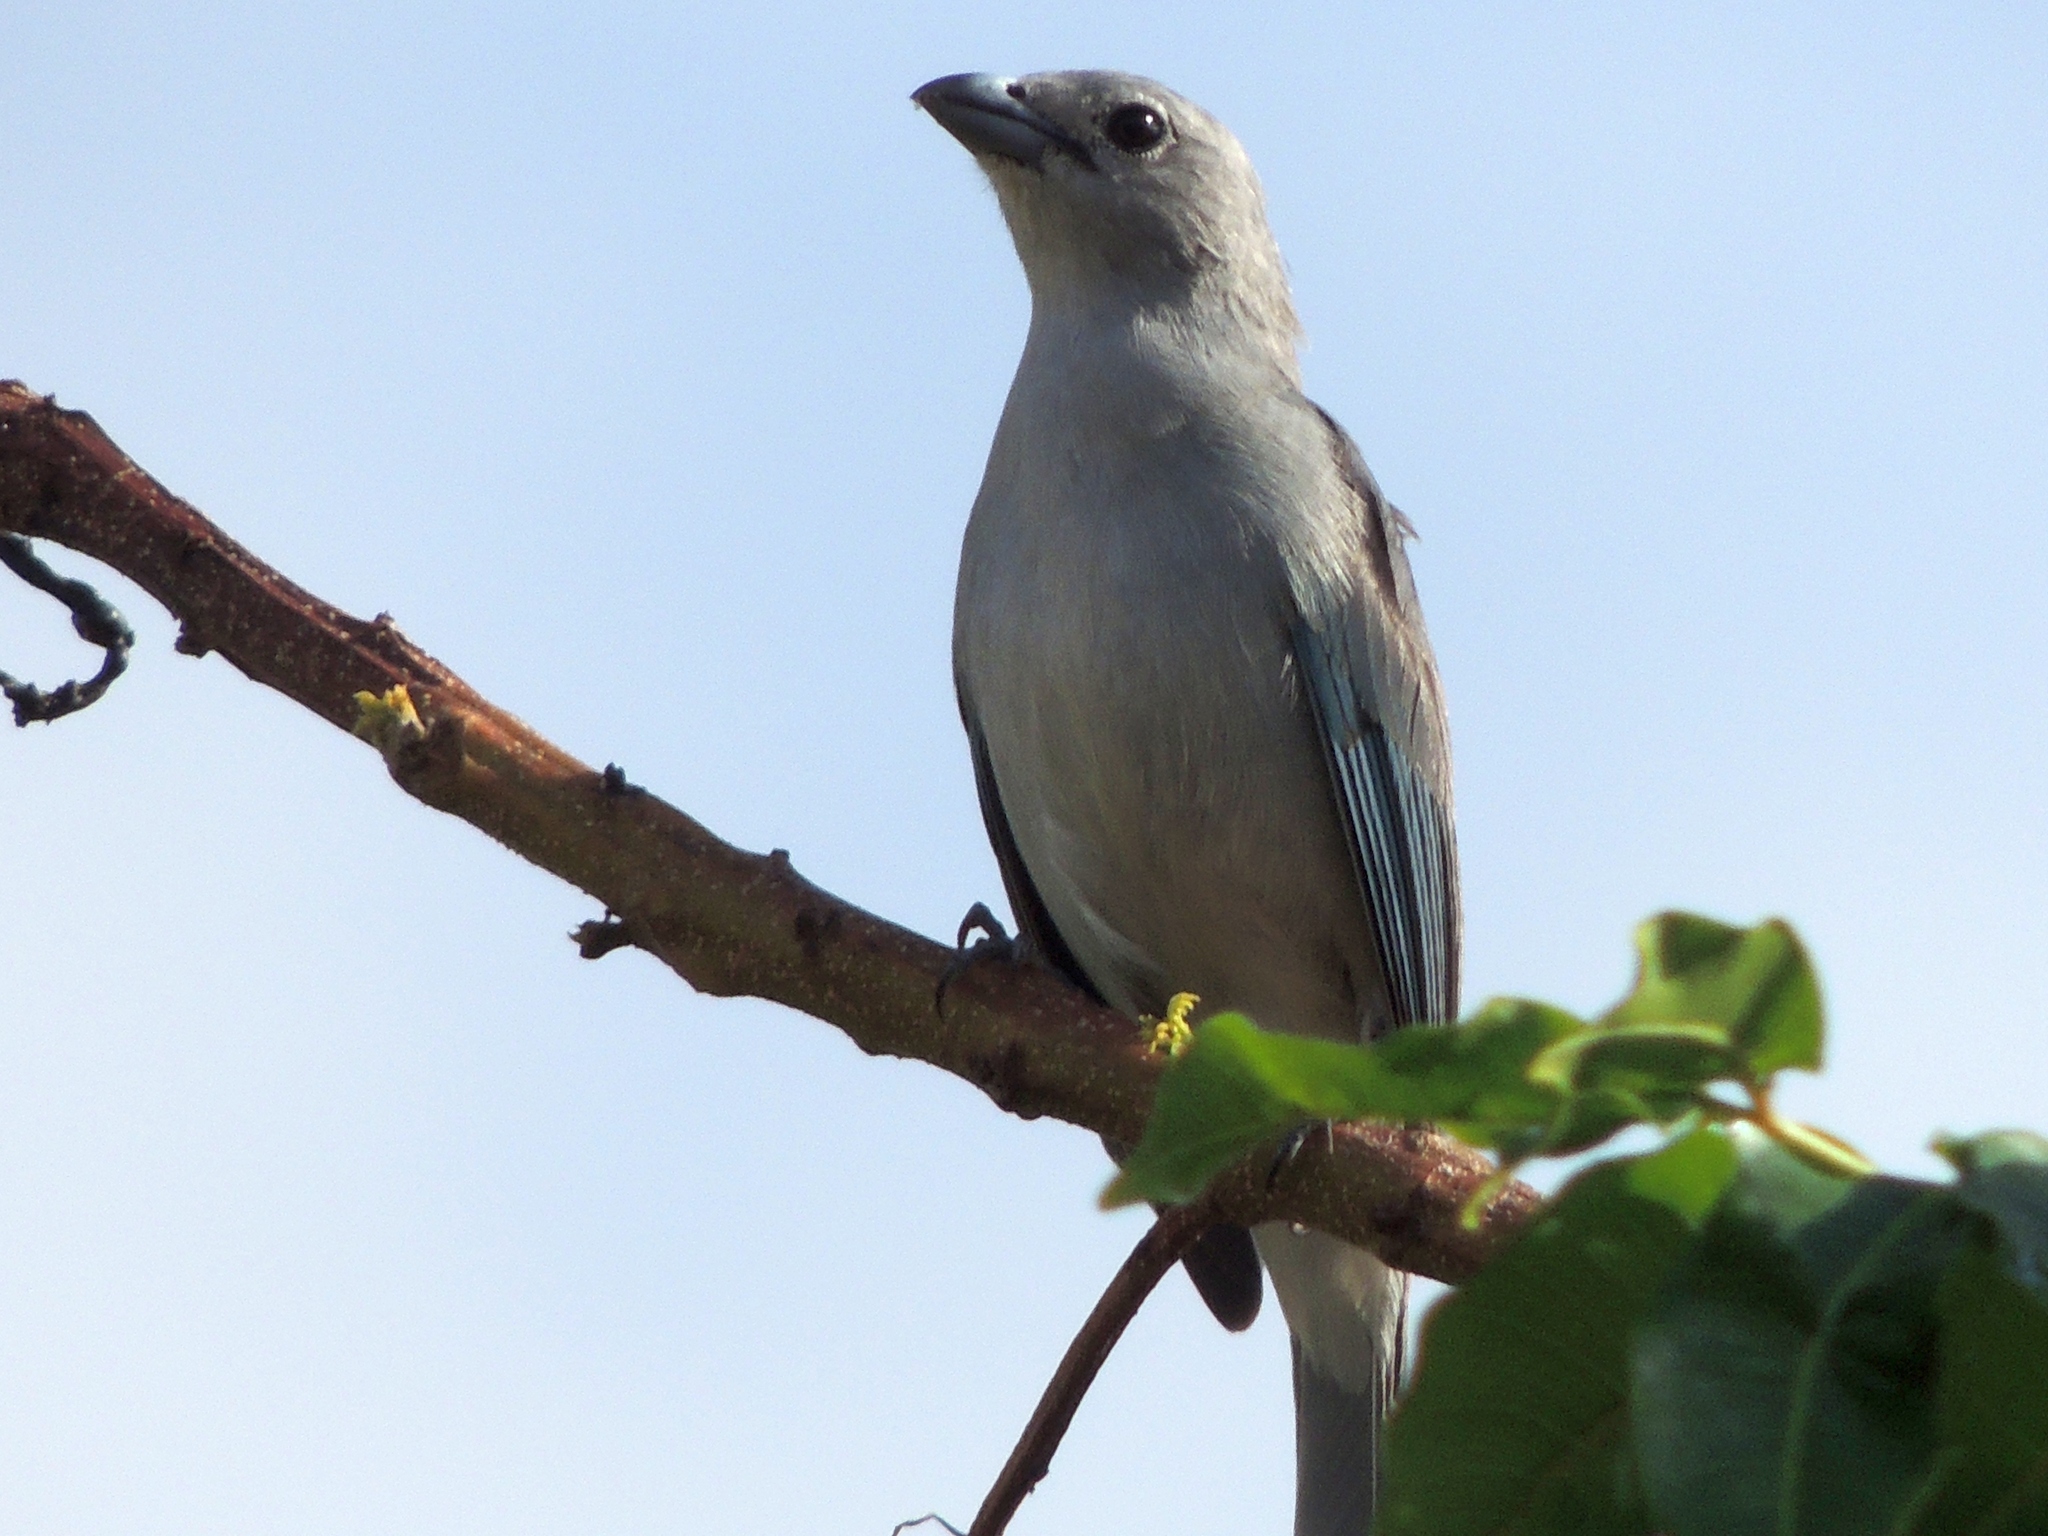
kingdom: Animalia
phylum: Chordata
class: Aves
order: Passeriformes
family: Thraupidae
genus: Thraupis
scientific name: Thraupis sayaca
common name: Sayaca tanager
